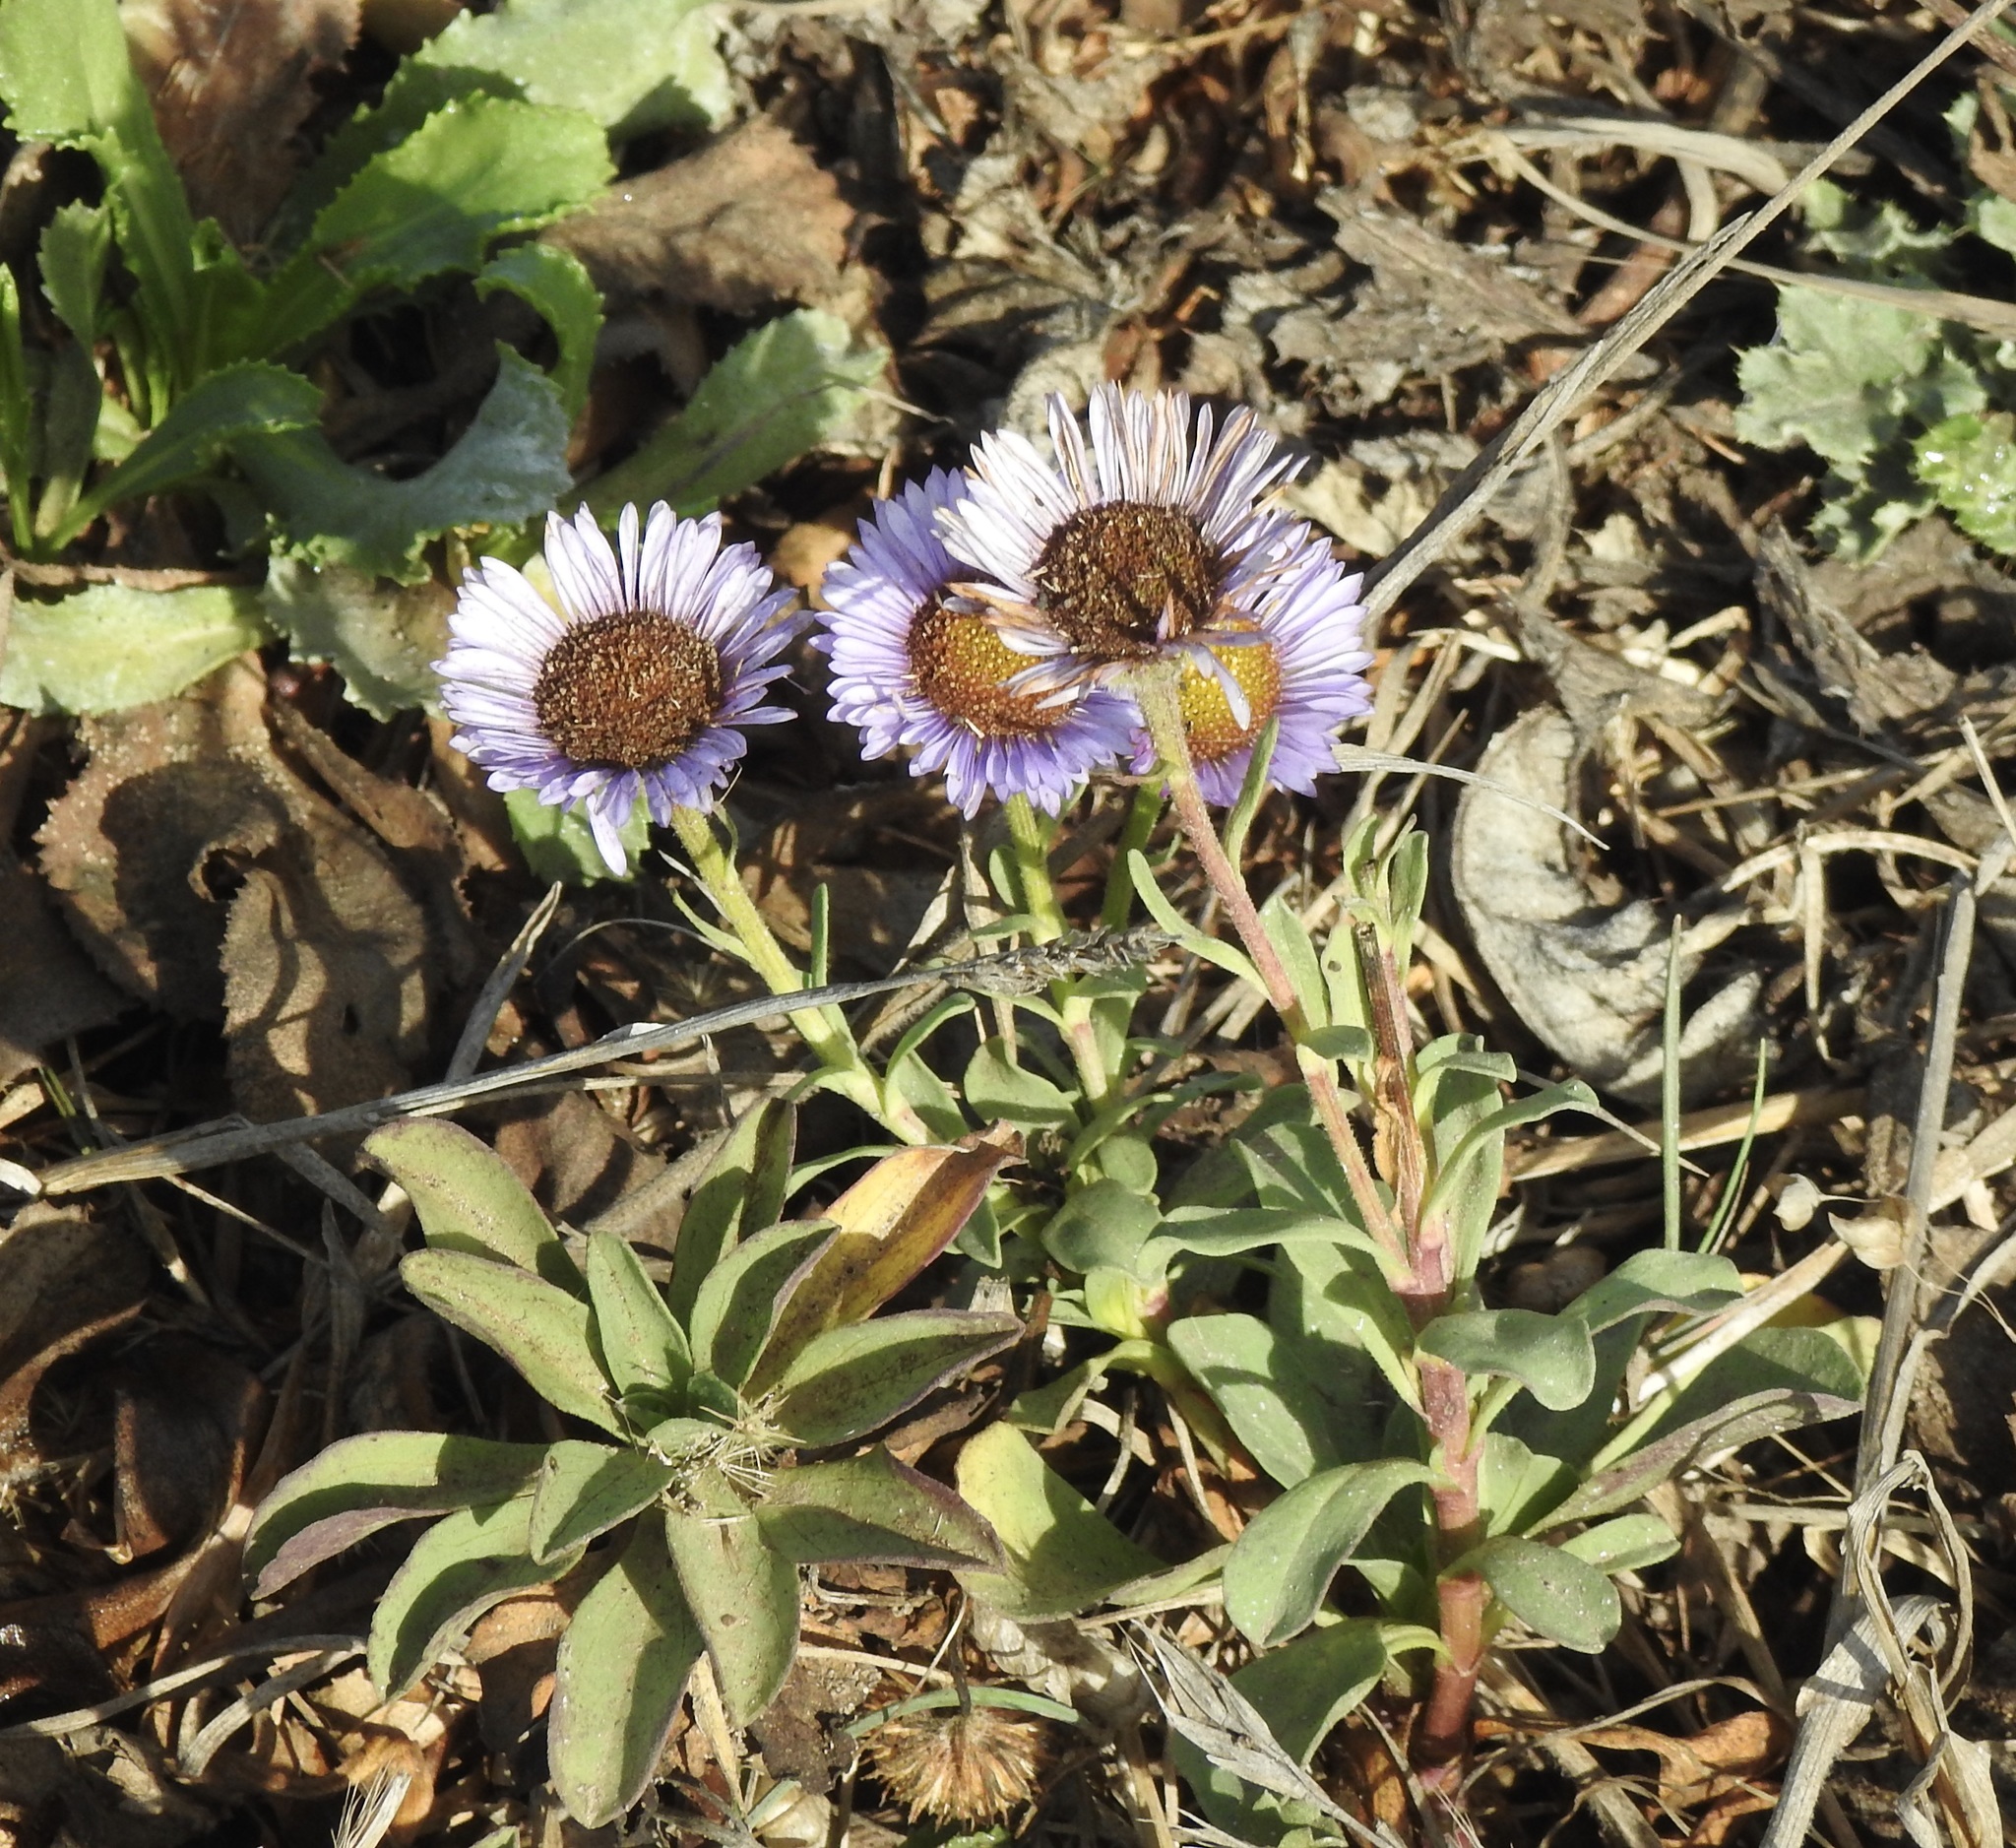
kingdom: Plantae
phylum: Tracheophyta
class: Magnoliopsida
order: Asterales
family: Asteraceae
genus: Erigeron
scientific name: Erigeron glaucus
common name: Seaside daisy
